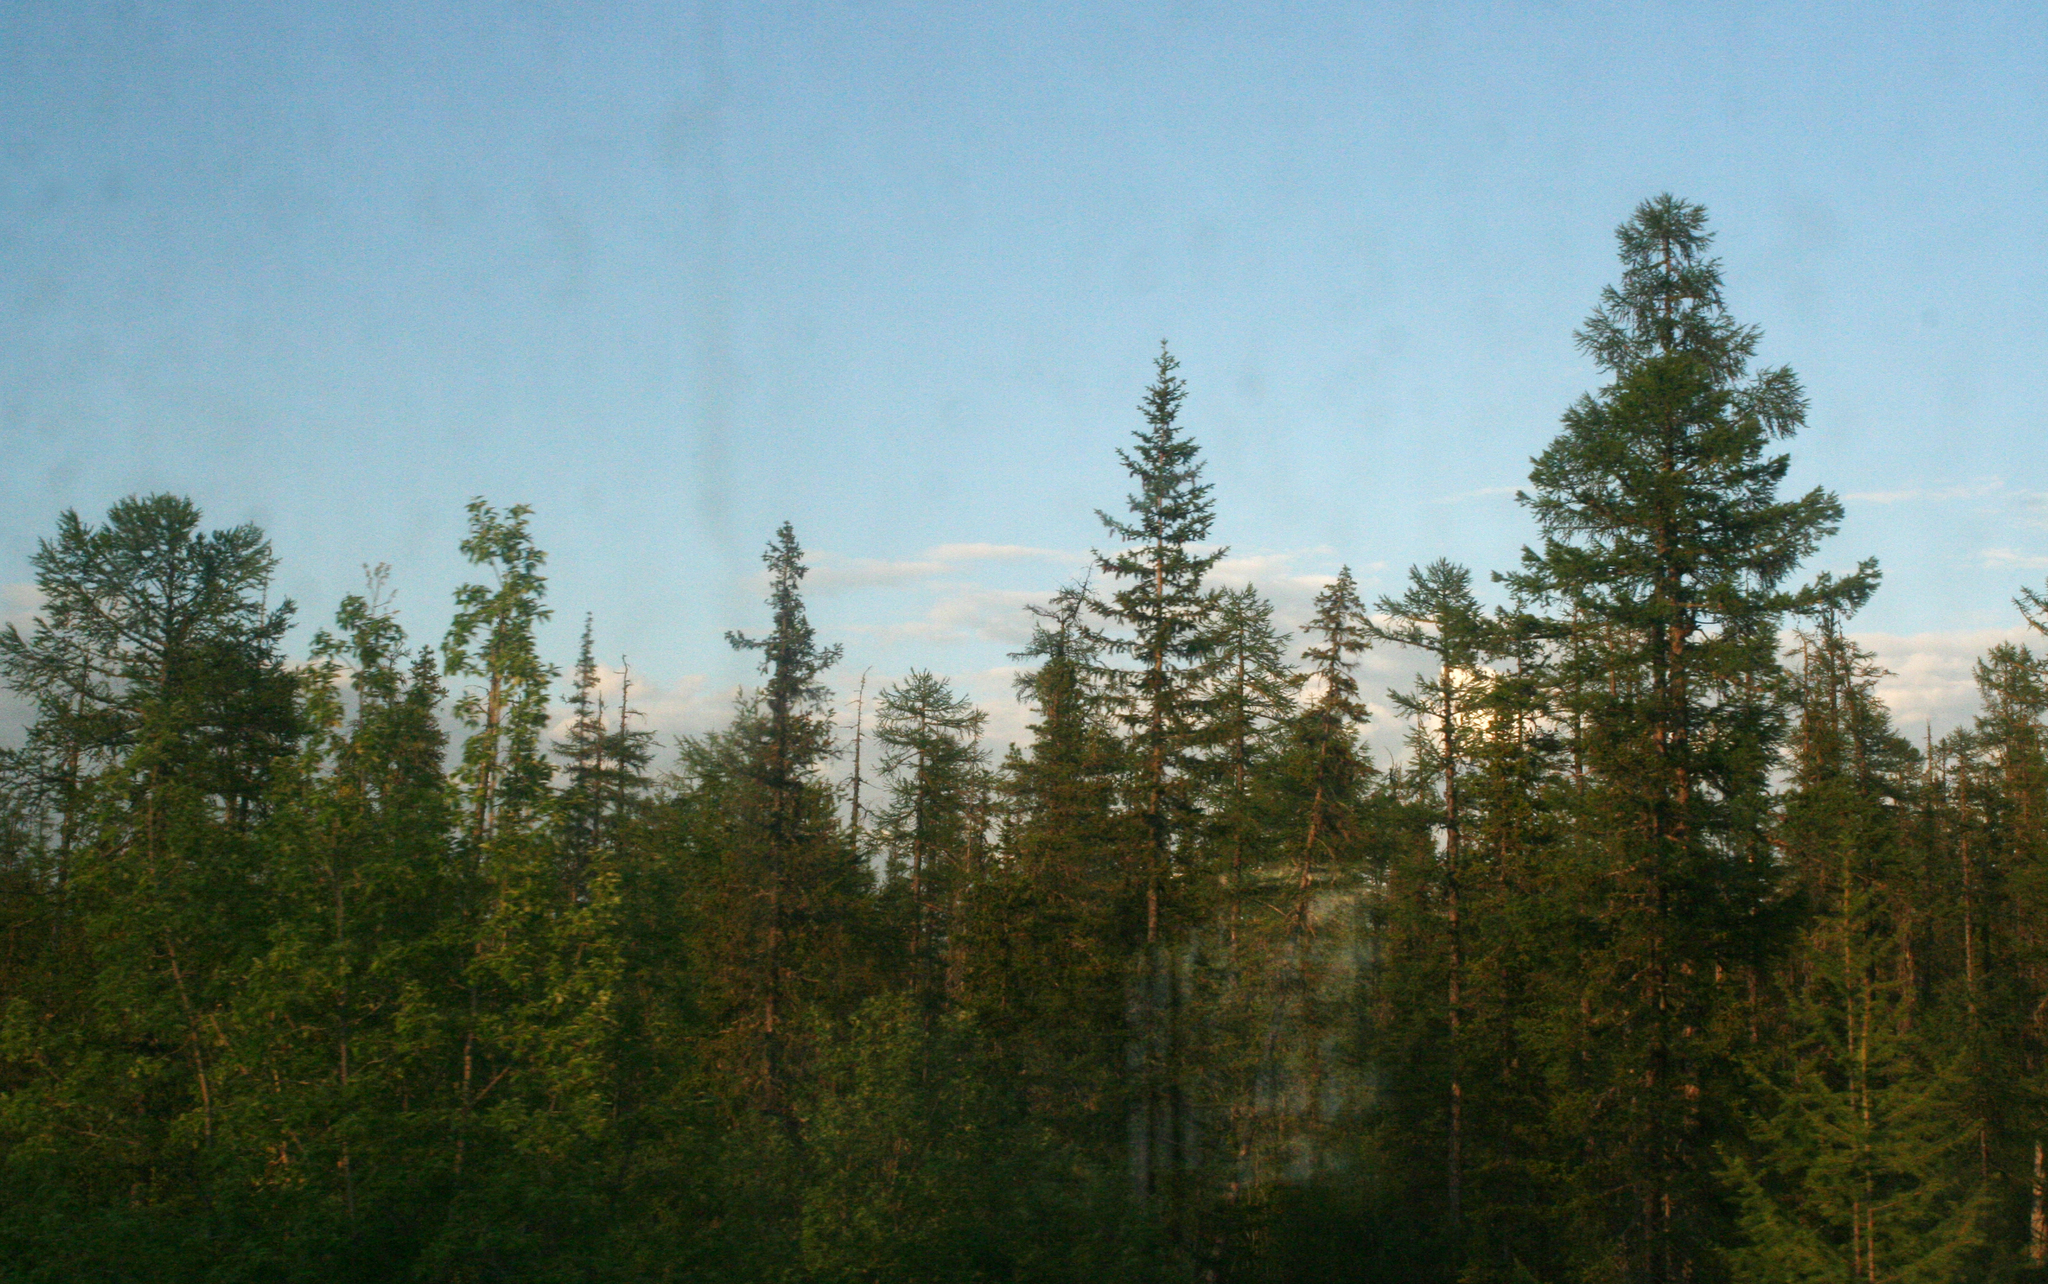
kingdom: Plantae
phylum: Tracheophyta
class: Pinopsida
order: Pinales
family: Pinaceae
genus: Larix
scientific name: Larix gmelinii
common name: Dahurian larch
